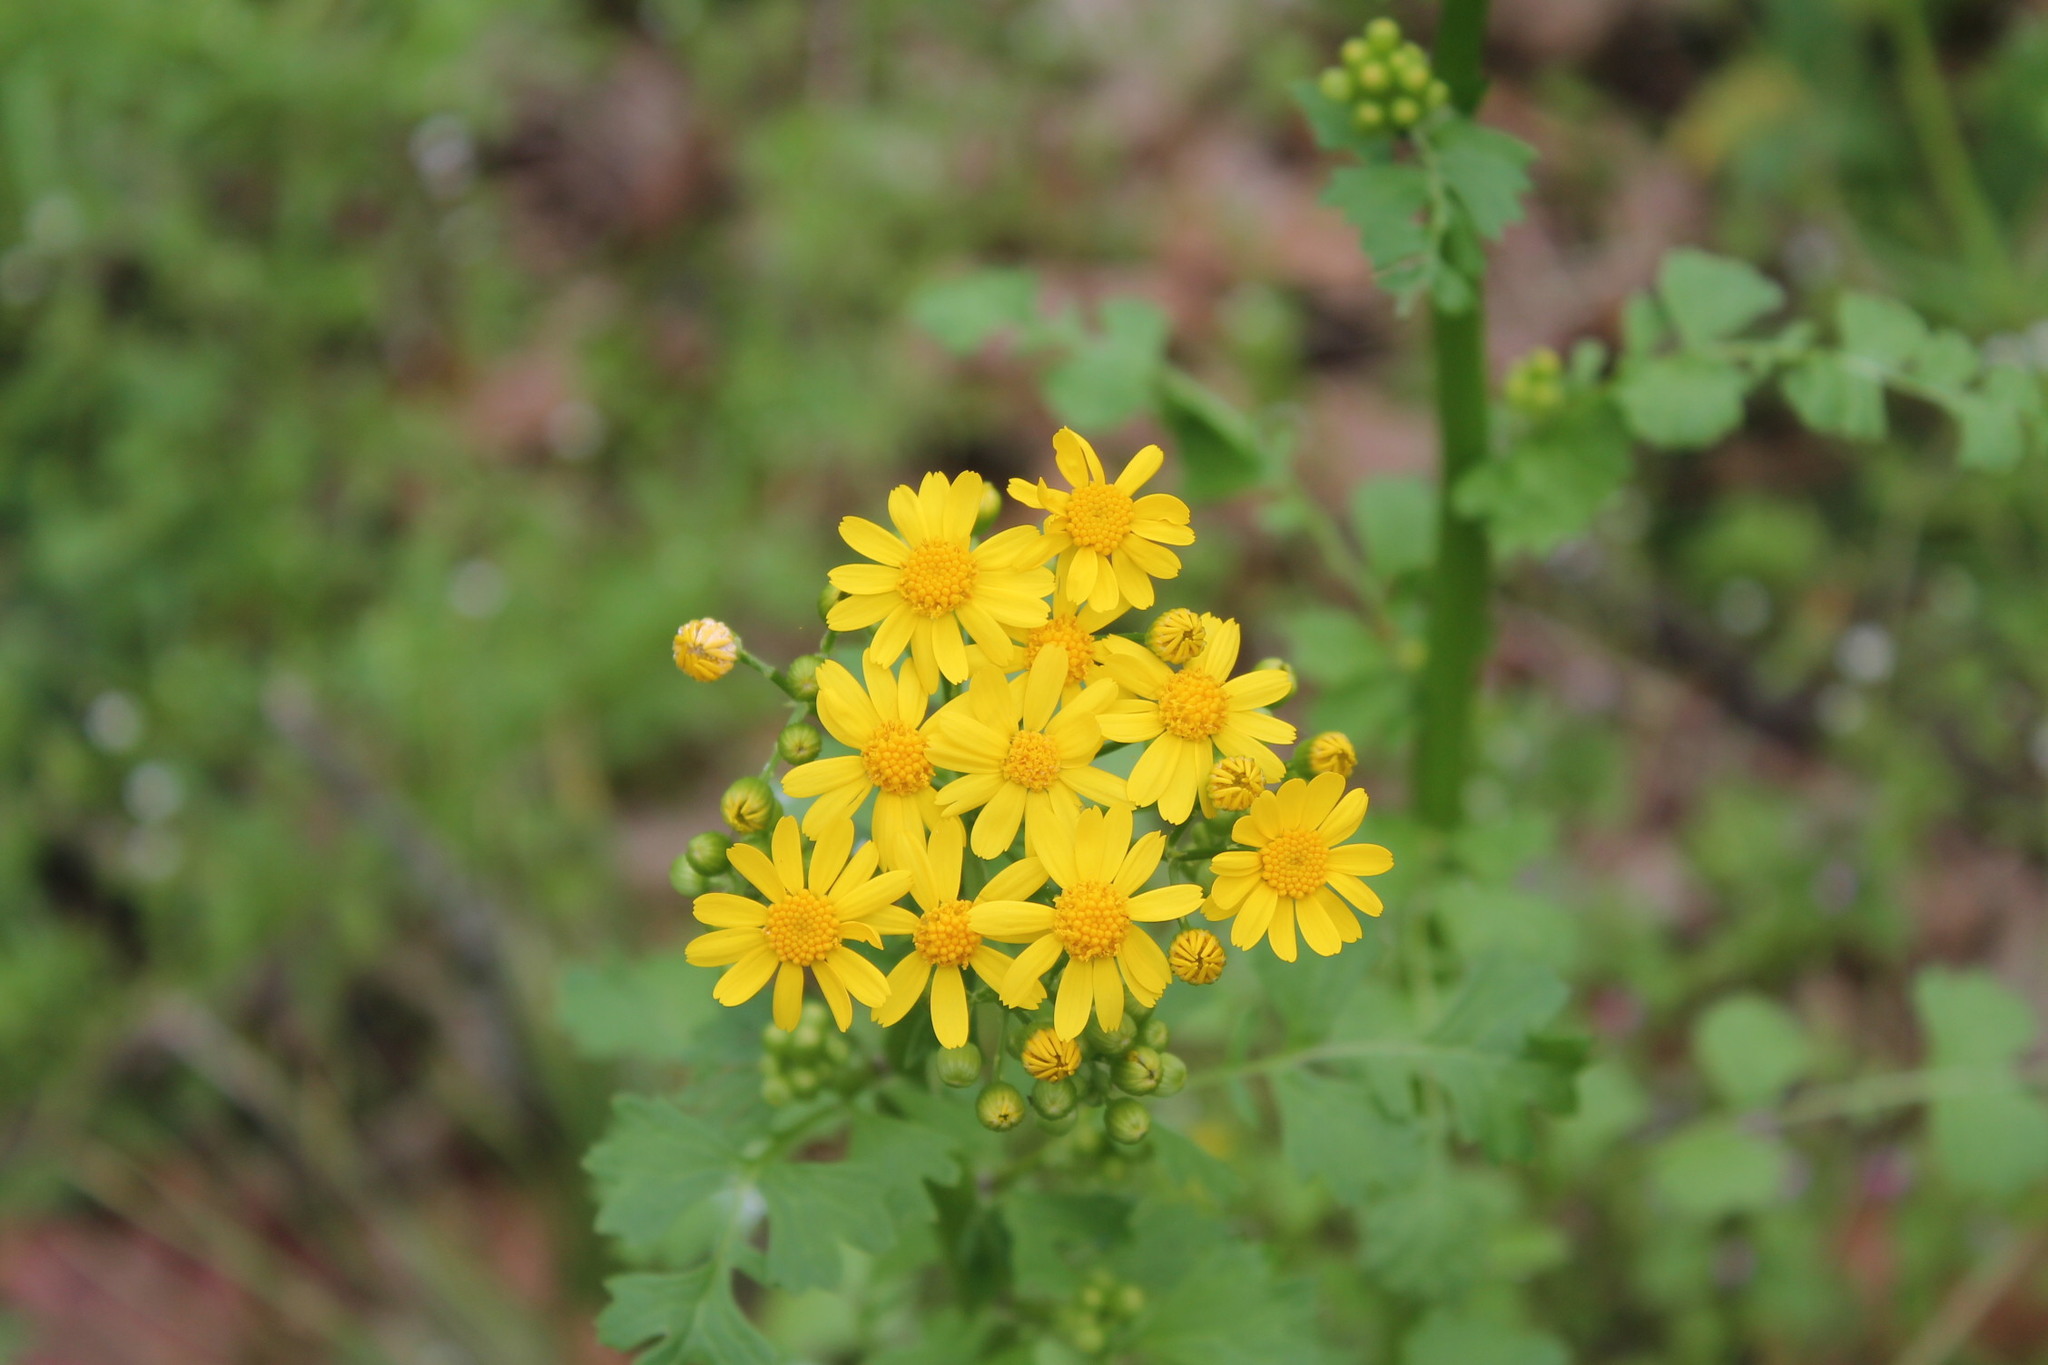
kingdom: Plantae
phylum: Tracheophyta
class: Magnoliopsida
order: Asterales
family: Asteraceae
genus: Packera
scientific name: Packera glabella
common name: Butterweed
